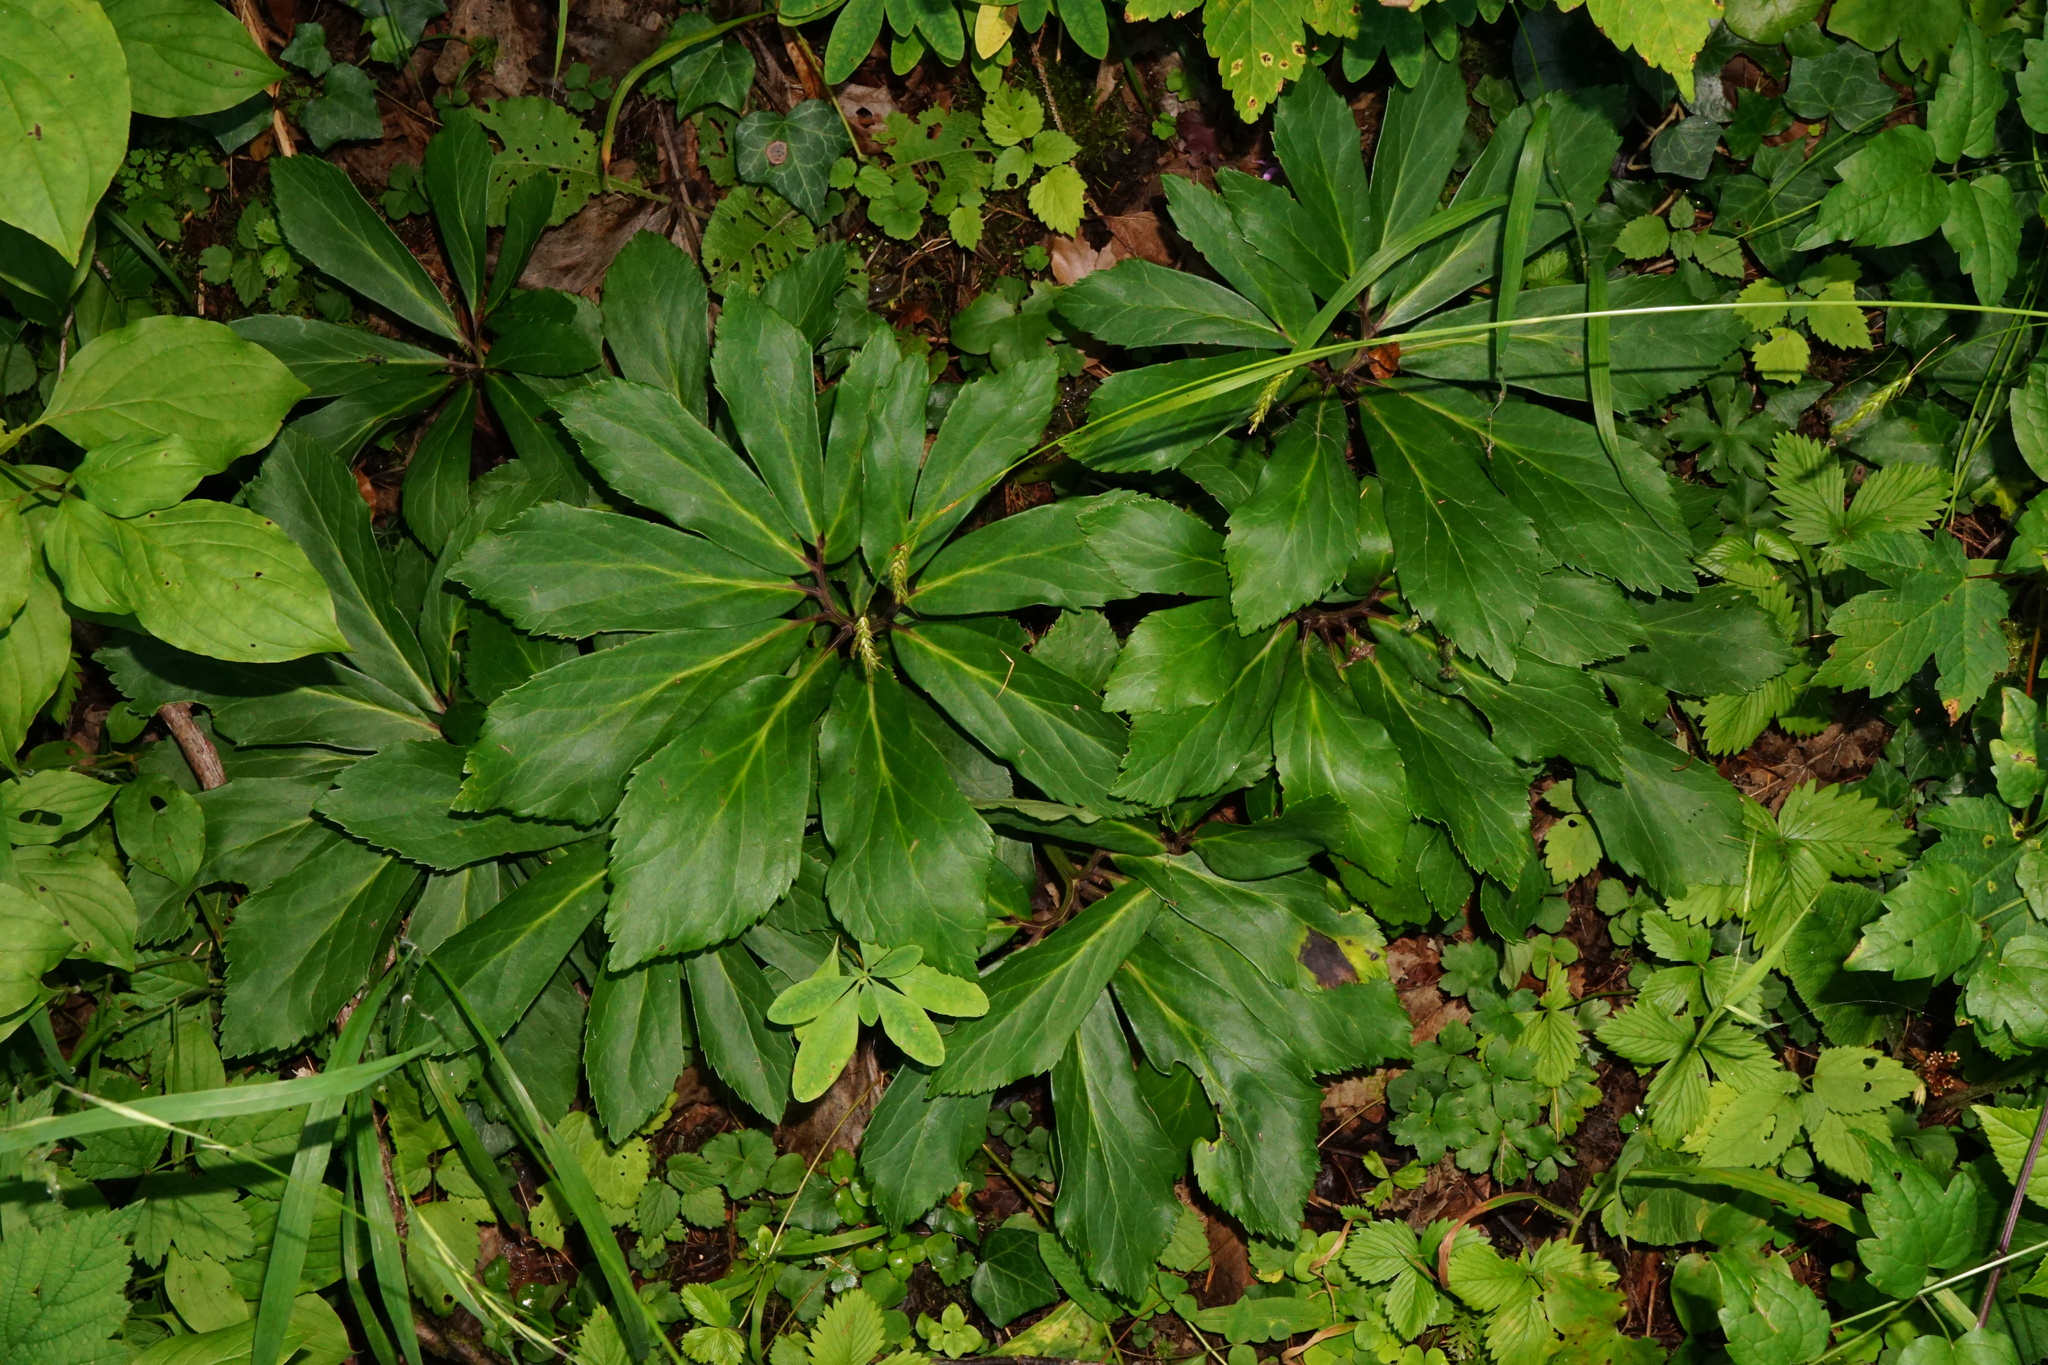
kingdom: Plantae
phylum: Tracheophyta
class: Magnoliopsida
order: Ranunculales
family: Ranunculaceae
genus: Helleborus
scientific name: Helleborus niger
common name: Black hellebore
